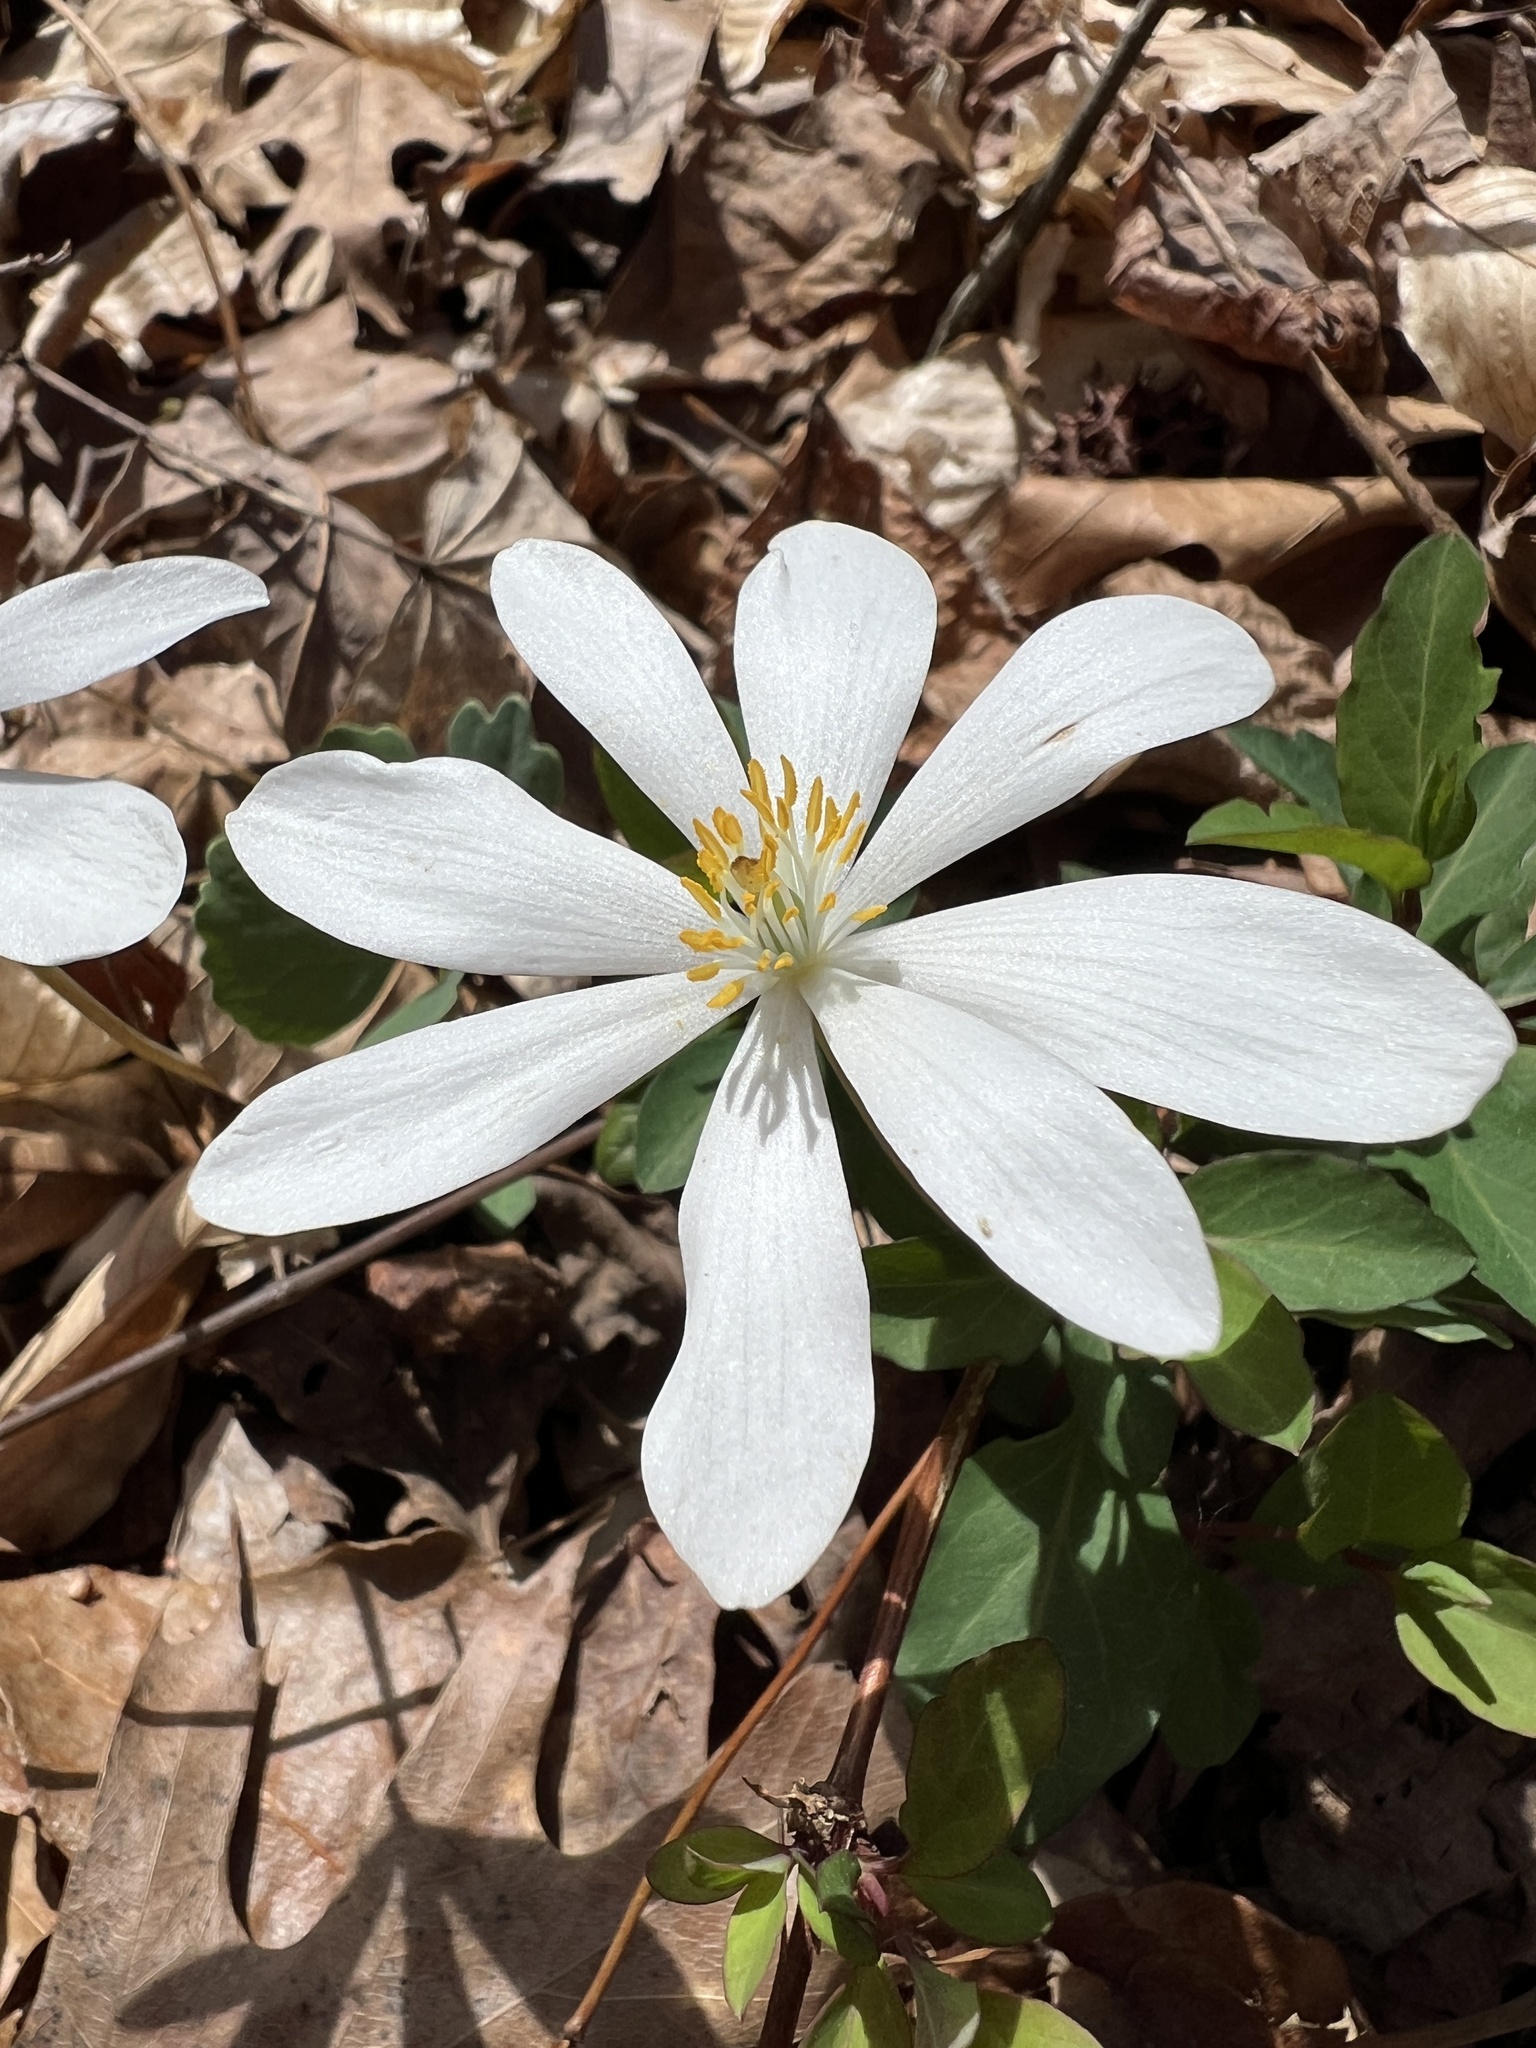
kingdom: Plantae
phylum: Tracheophyta
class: Magnoliopsida
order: Ranunculales
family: Papaveraceae
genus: Sanguinaria
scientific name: Sanguinaria canadensis
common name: Bloodroot
